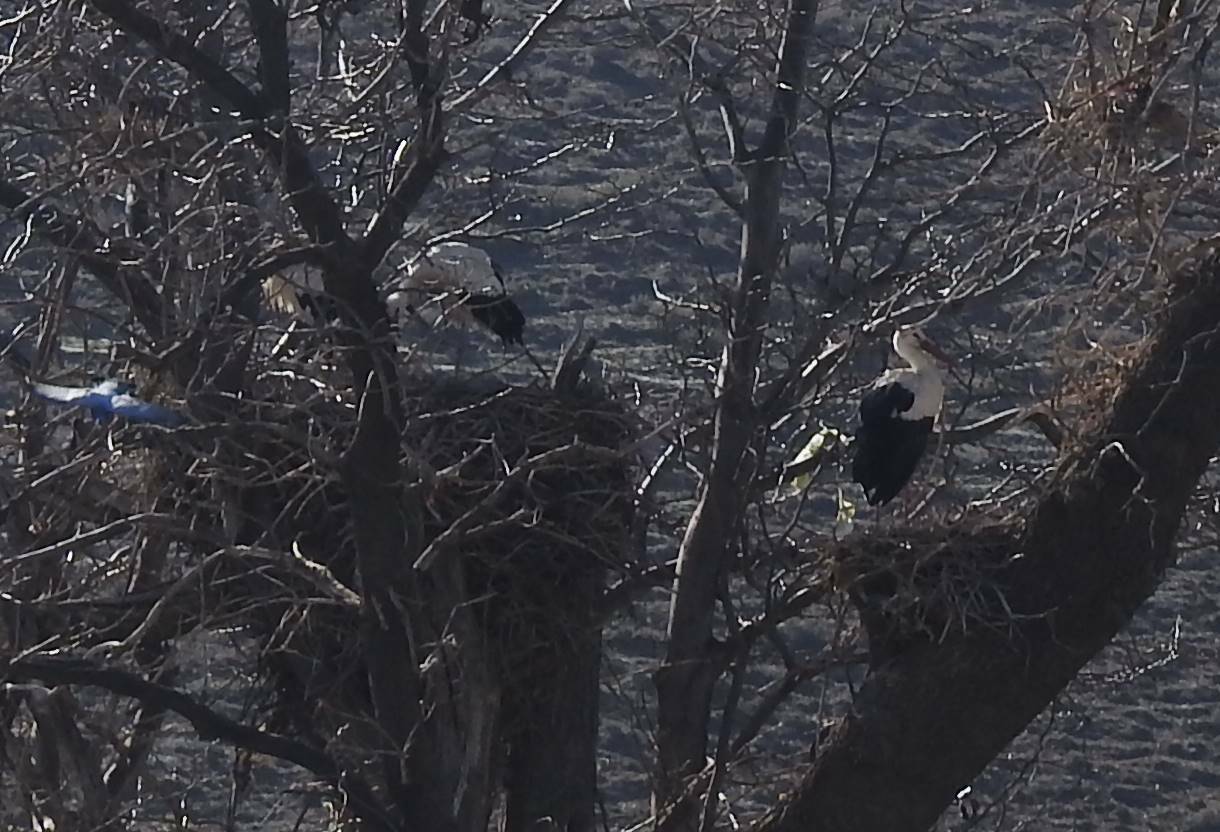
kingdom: Animalia
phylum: Chordata
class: Aves
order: Ciconiiformes
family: Ciconiidae
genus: Ciconia
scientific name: Ciconia ciconia
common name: White stork
